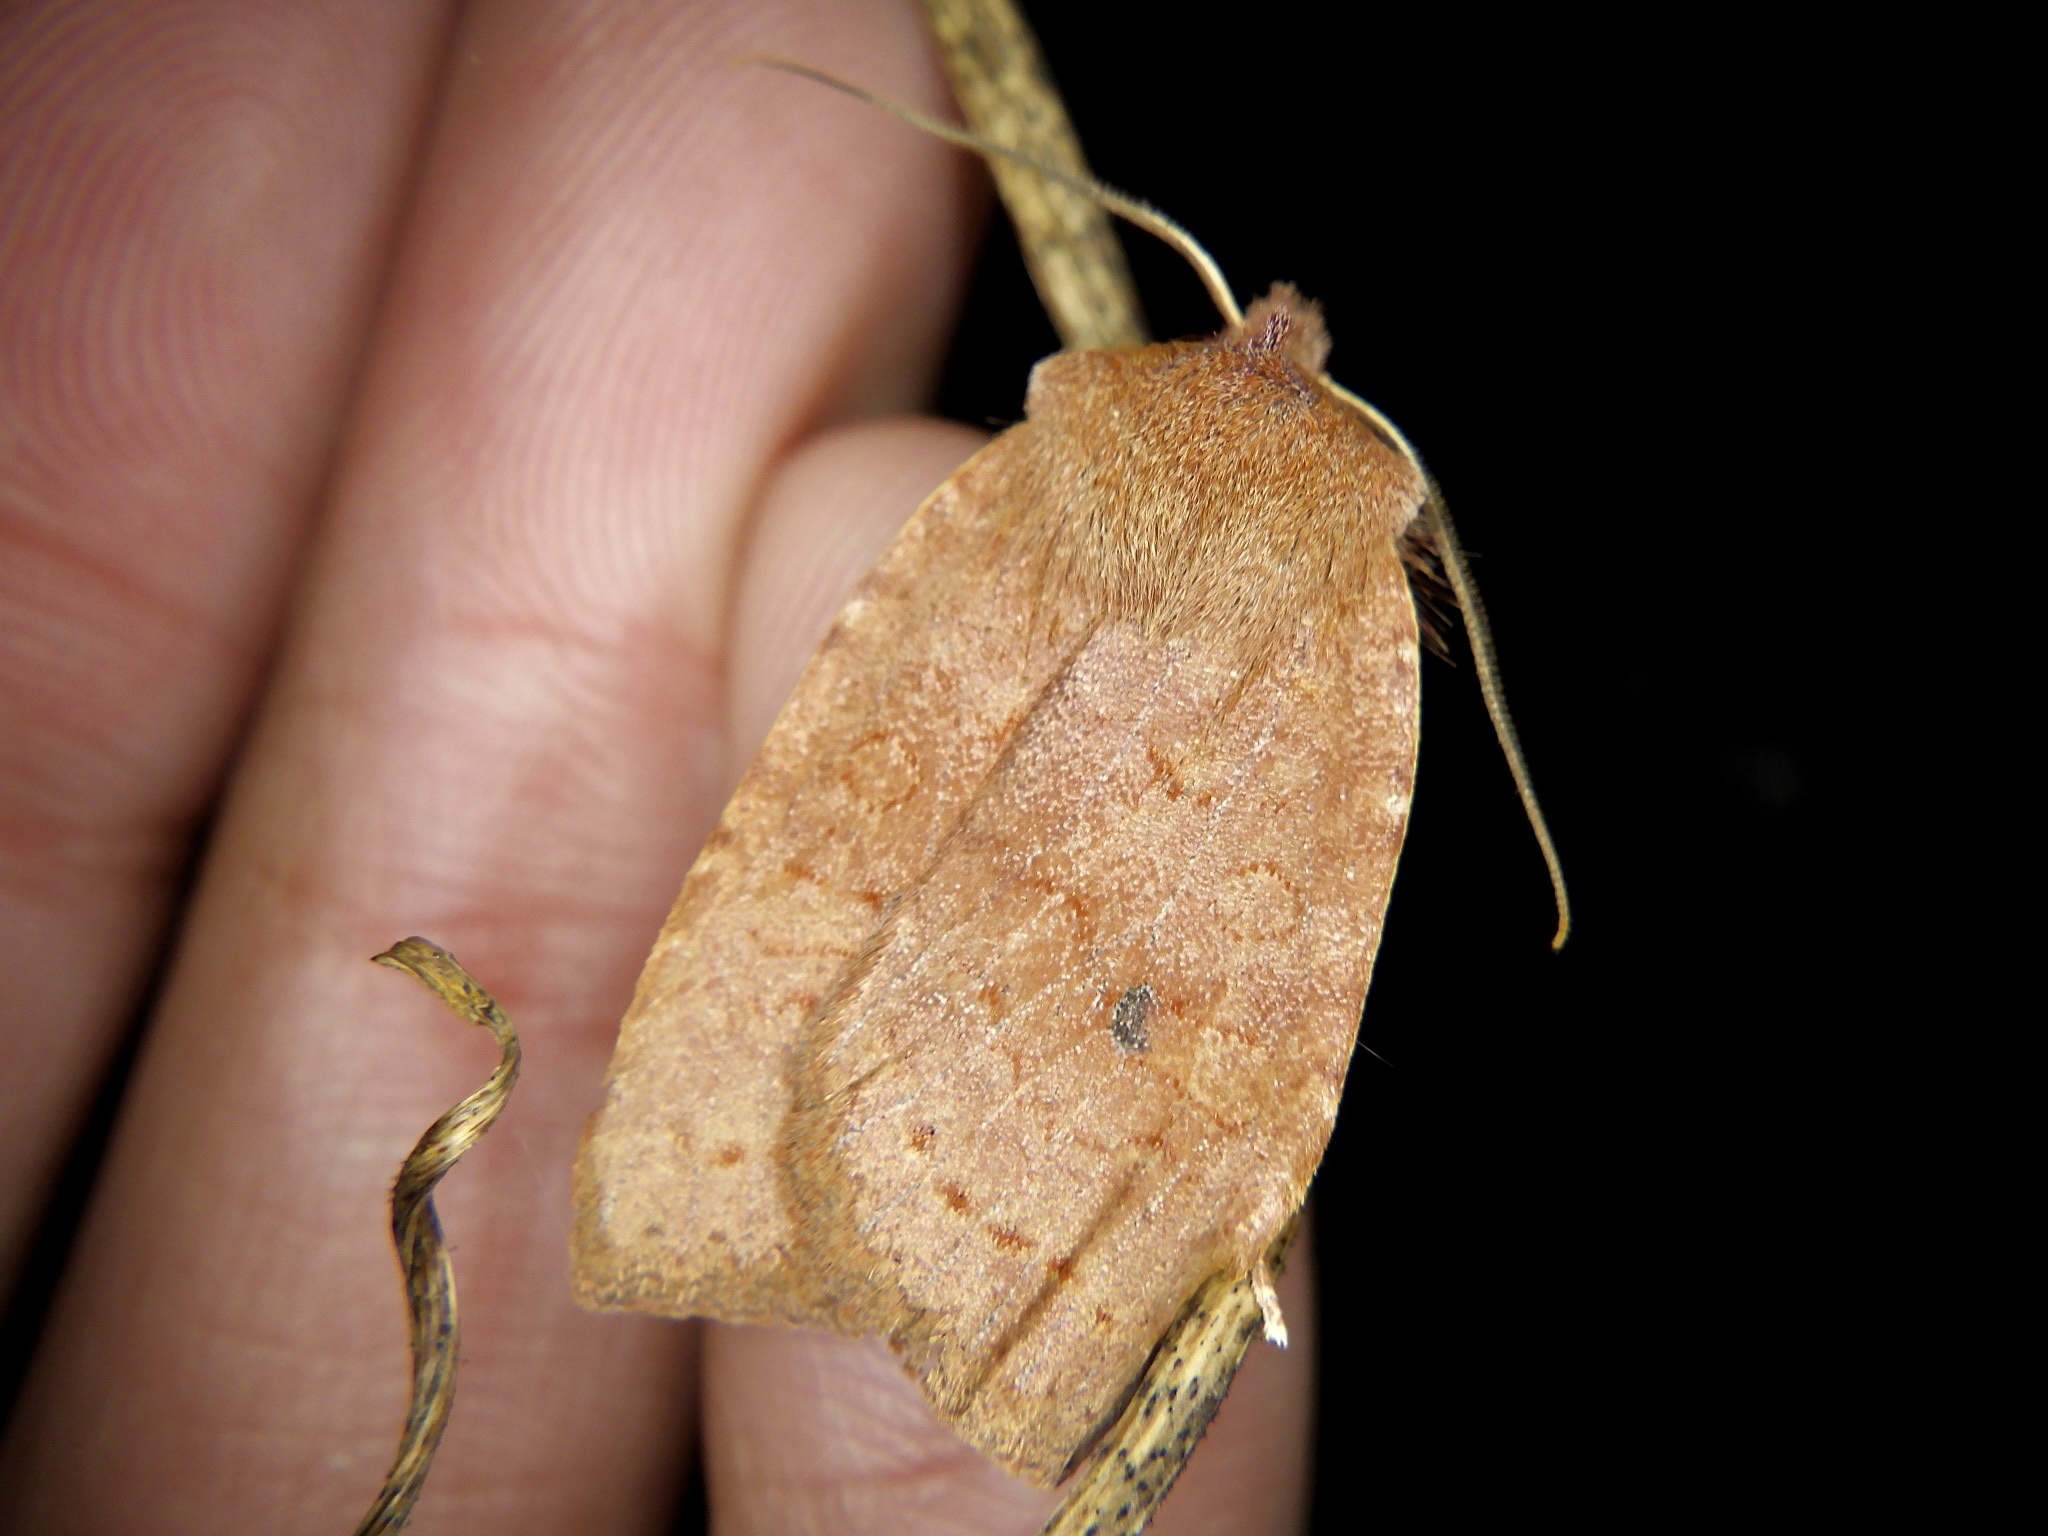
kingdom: Animalia
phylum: Arthropoda
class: Insecta
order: Lepidoptera
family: Noctuidae
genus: Conistra
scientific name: Conistra ardescens
